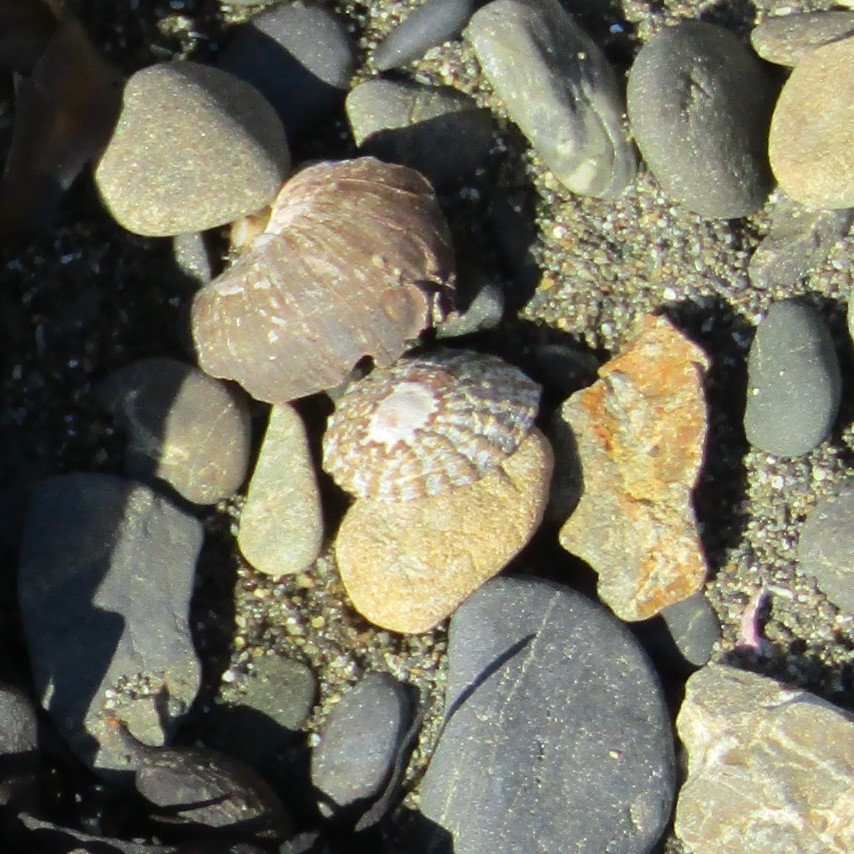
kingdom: Animalia
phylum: Mollusca
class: Gastropoda
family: Nacellidae
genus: Cellana
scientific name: Cellana denticulata
